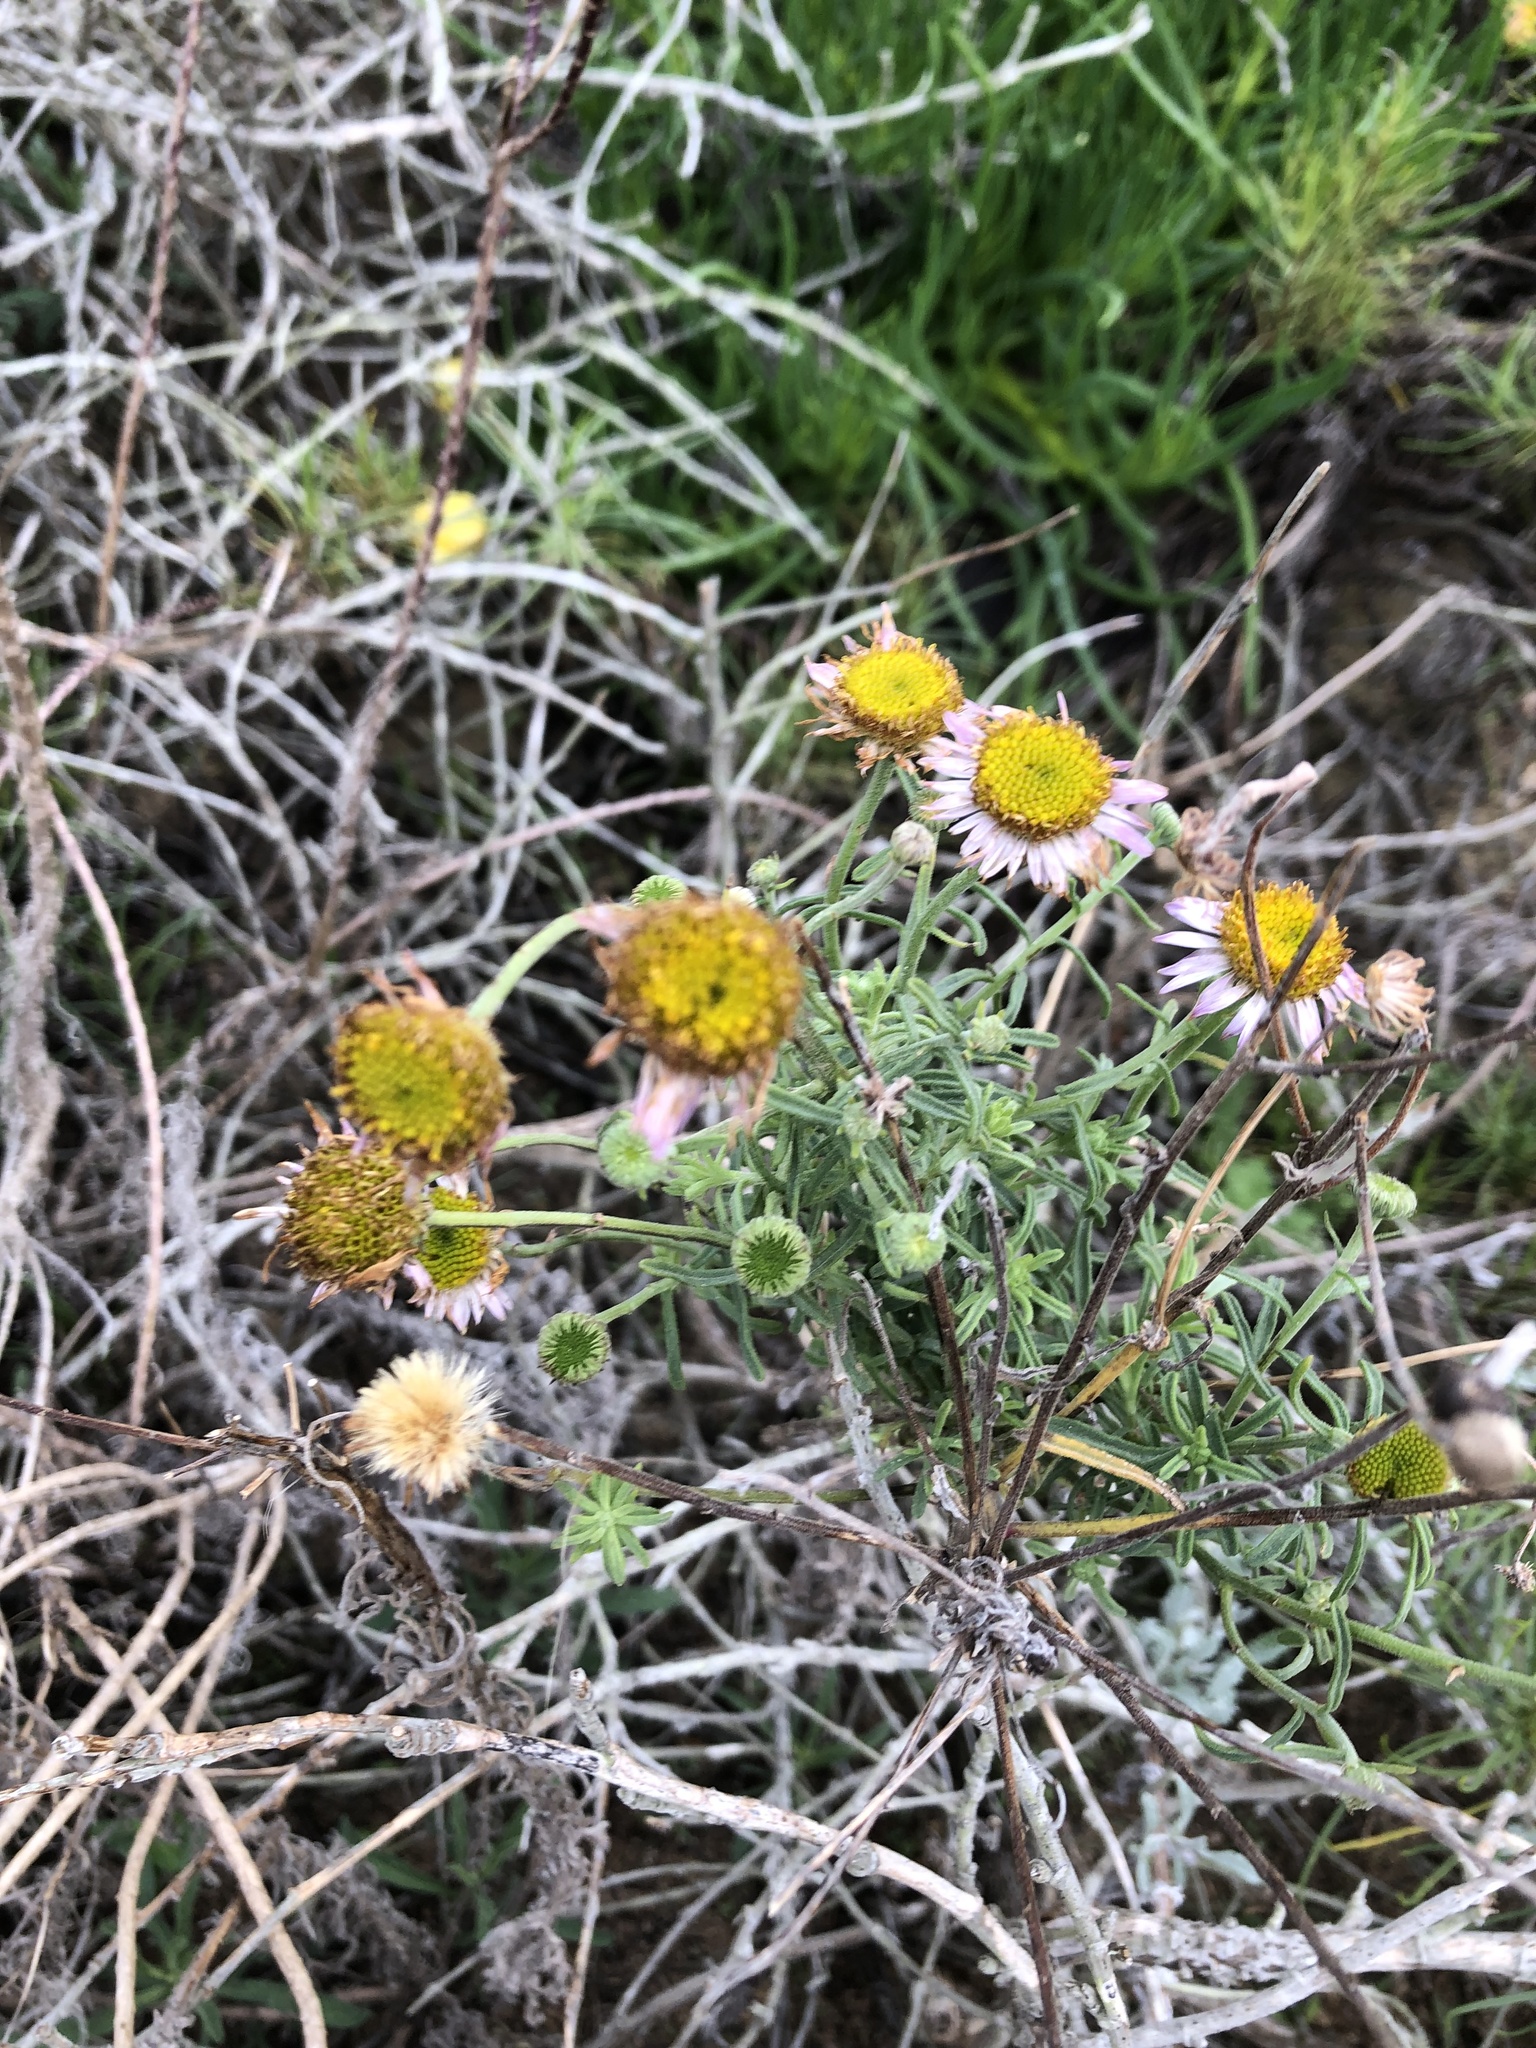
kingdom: Plantae
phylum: Tracheophyta
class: Magnoliopsida
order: Asterales
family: Asteraceae
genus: Erigeron
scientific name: Erigeron blochmaniae
